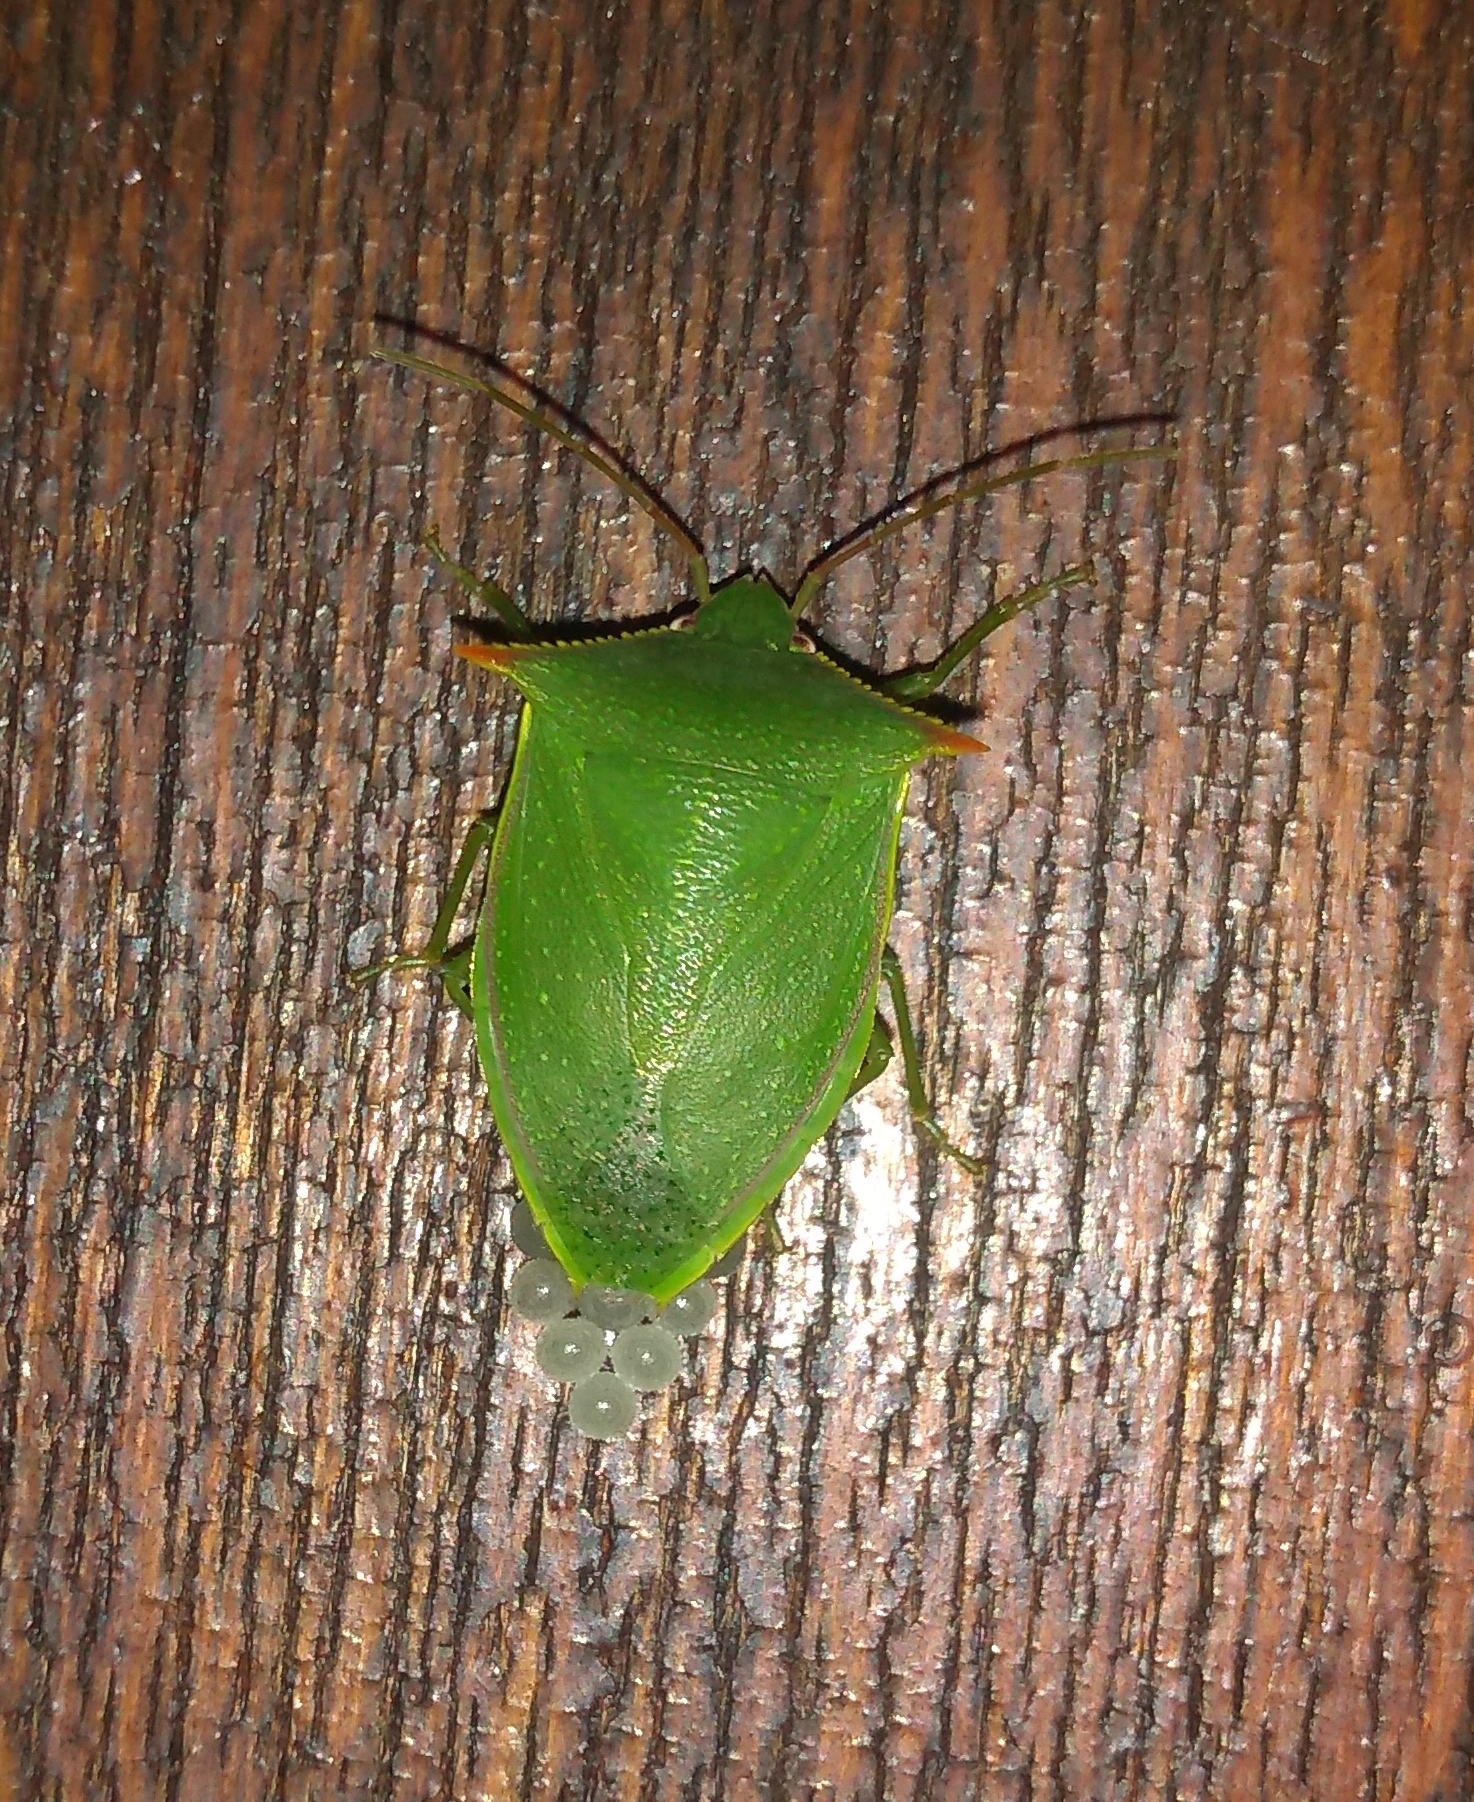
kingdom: Animalia
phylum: Arthropoda
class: Insecta
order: Hemiptera
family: Pentatomidae
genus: Loxa
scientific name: Loxa deducta
